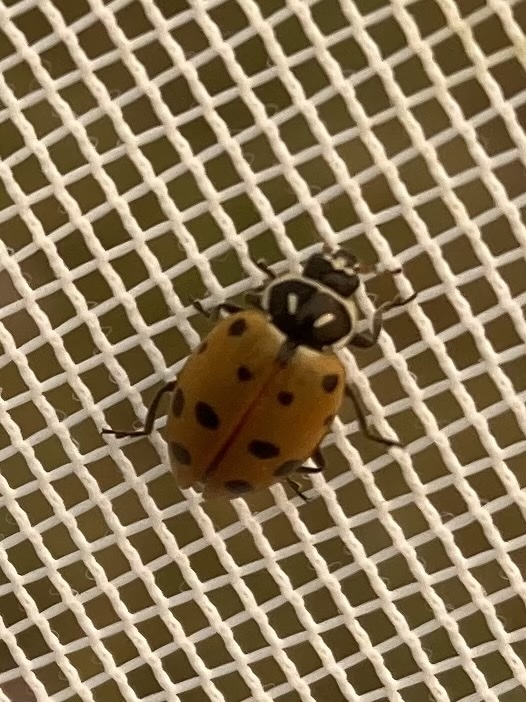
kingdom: Animalia
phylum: Arthropoda
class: Insecta
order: Coleoptera
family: Coccinellidae
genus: Hippodamia
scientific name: Hippodamia convergens
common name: Convergent lady beetle
